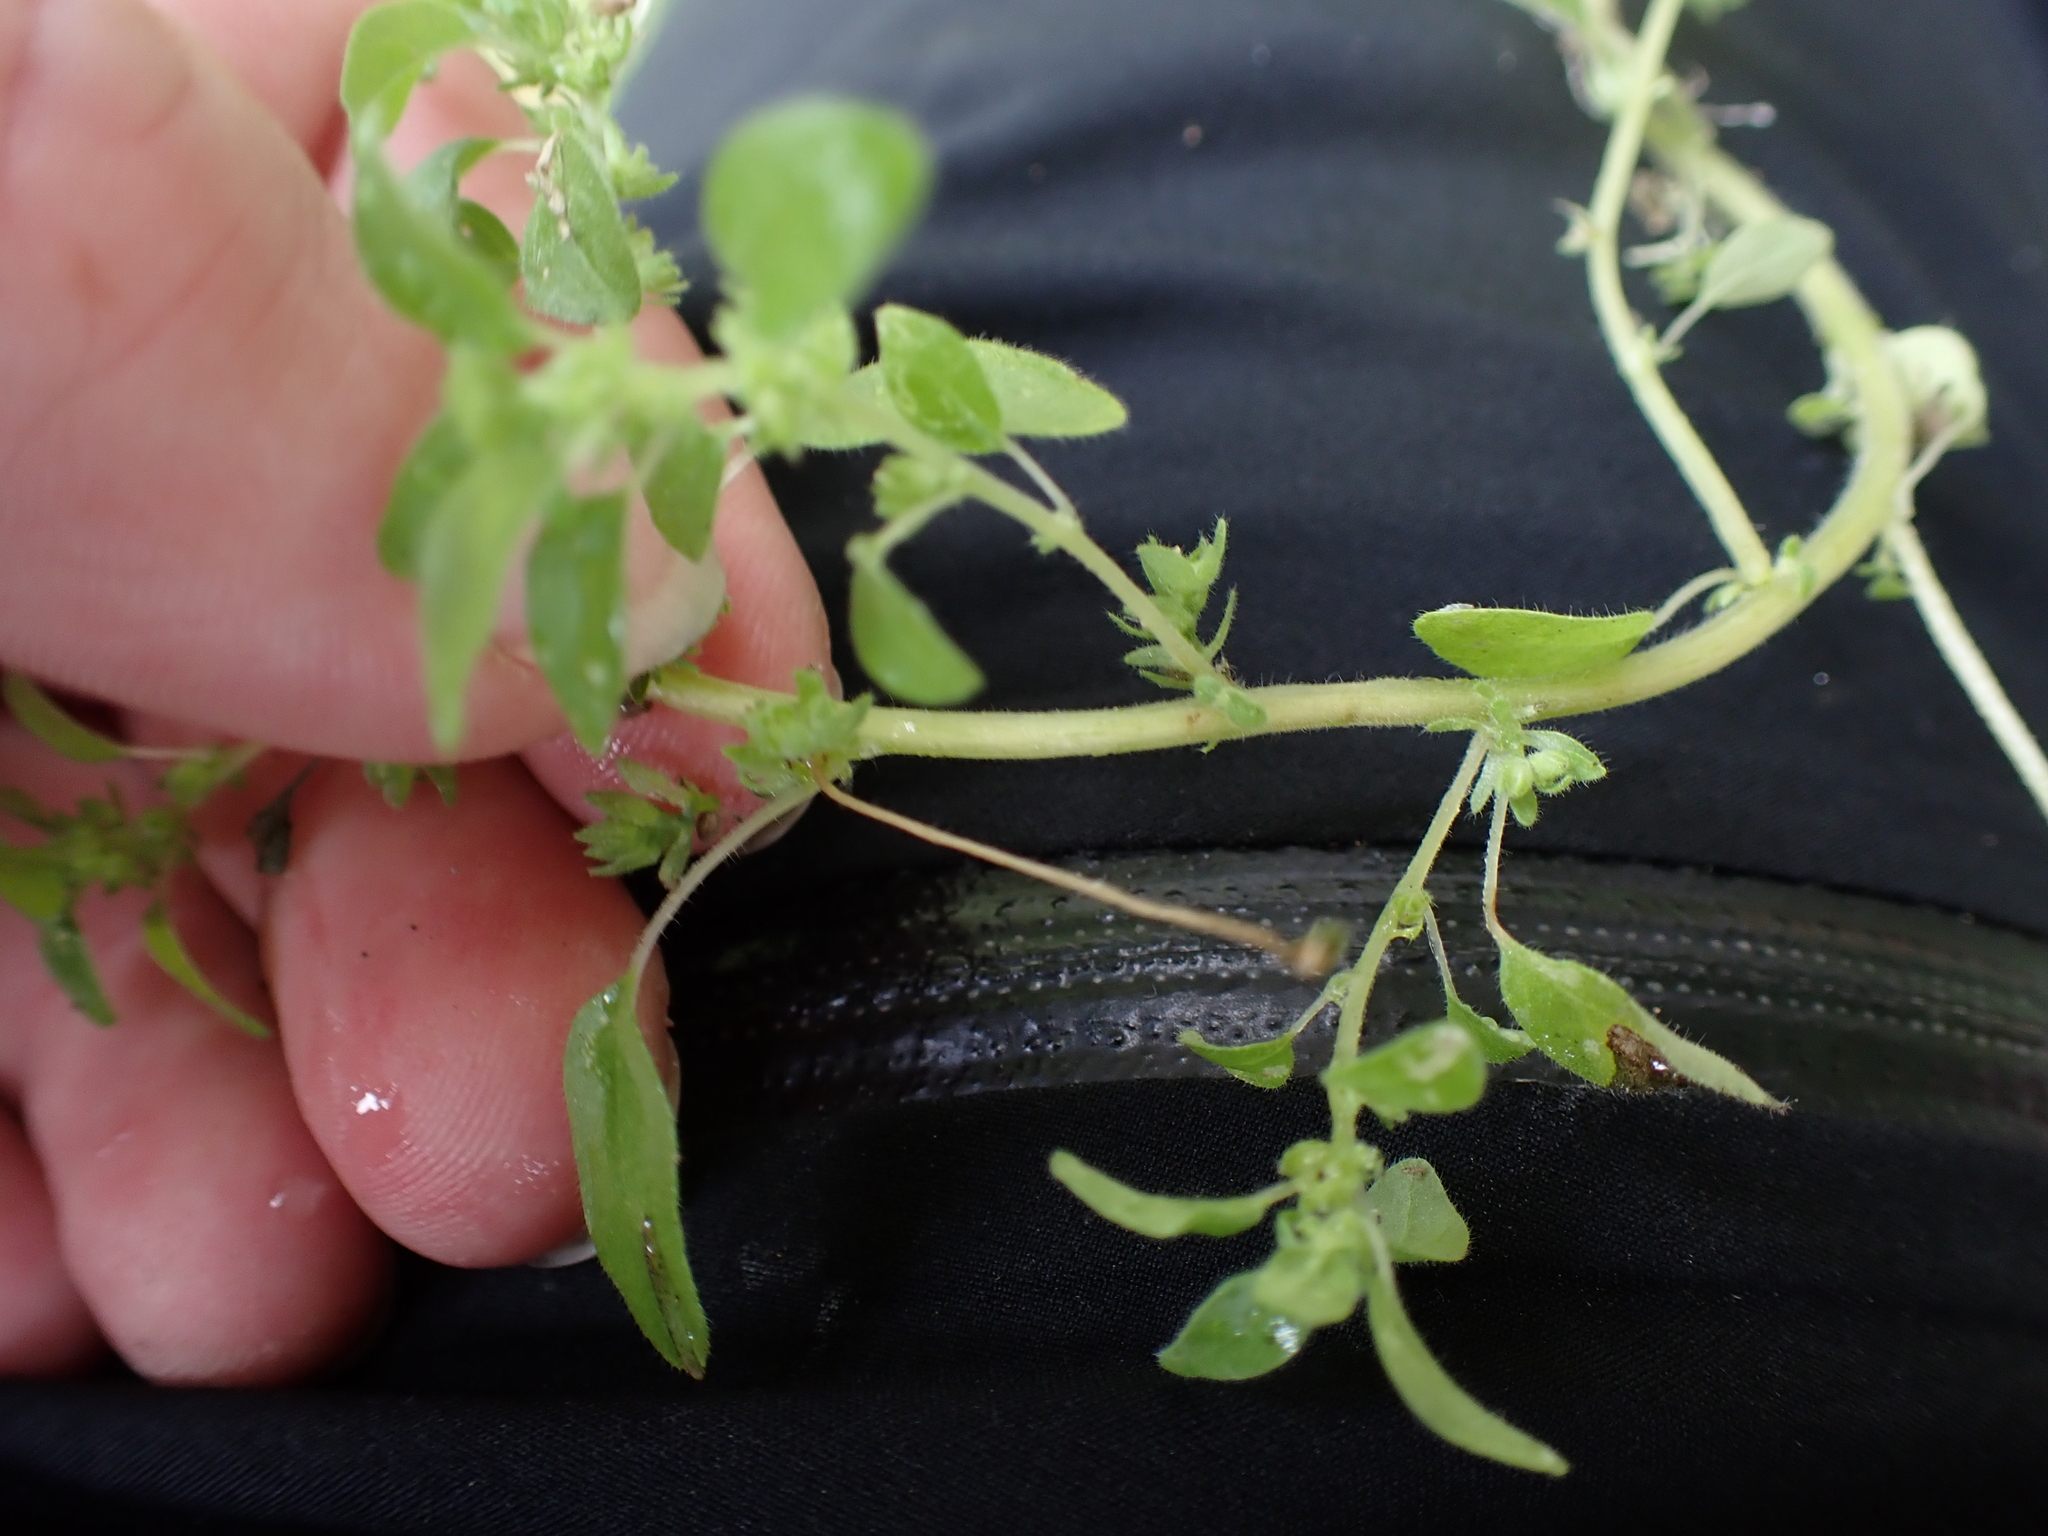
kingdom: Plantae
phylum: Tracheophyta
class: Magnoliopsida
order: Rosales
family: Urticaceae
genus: Parietaria
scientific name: Parietaria pensylvanica
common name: Pennsylvania pellitory
